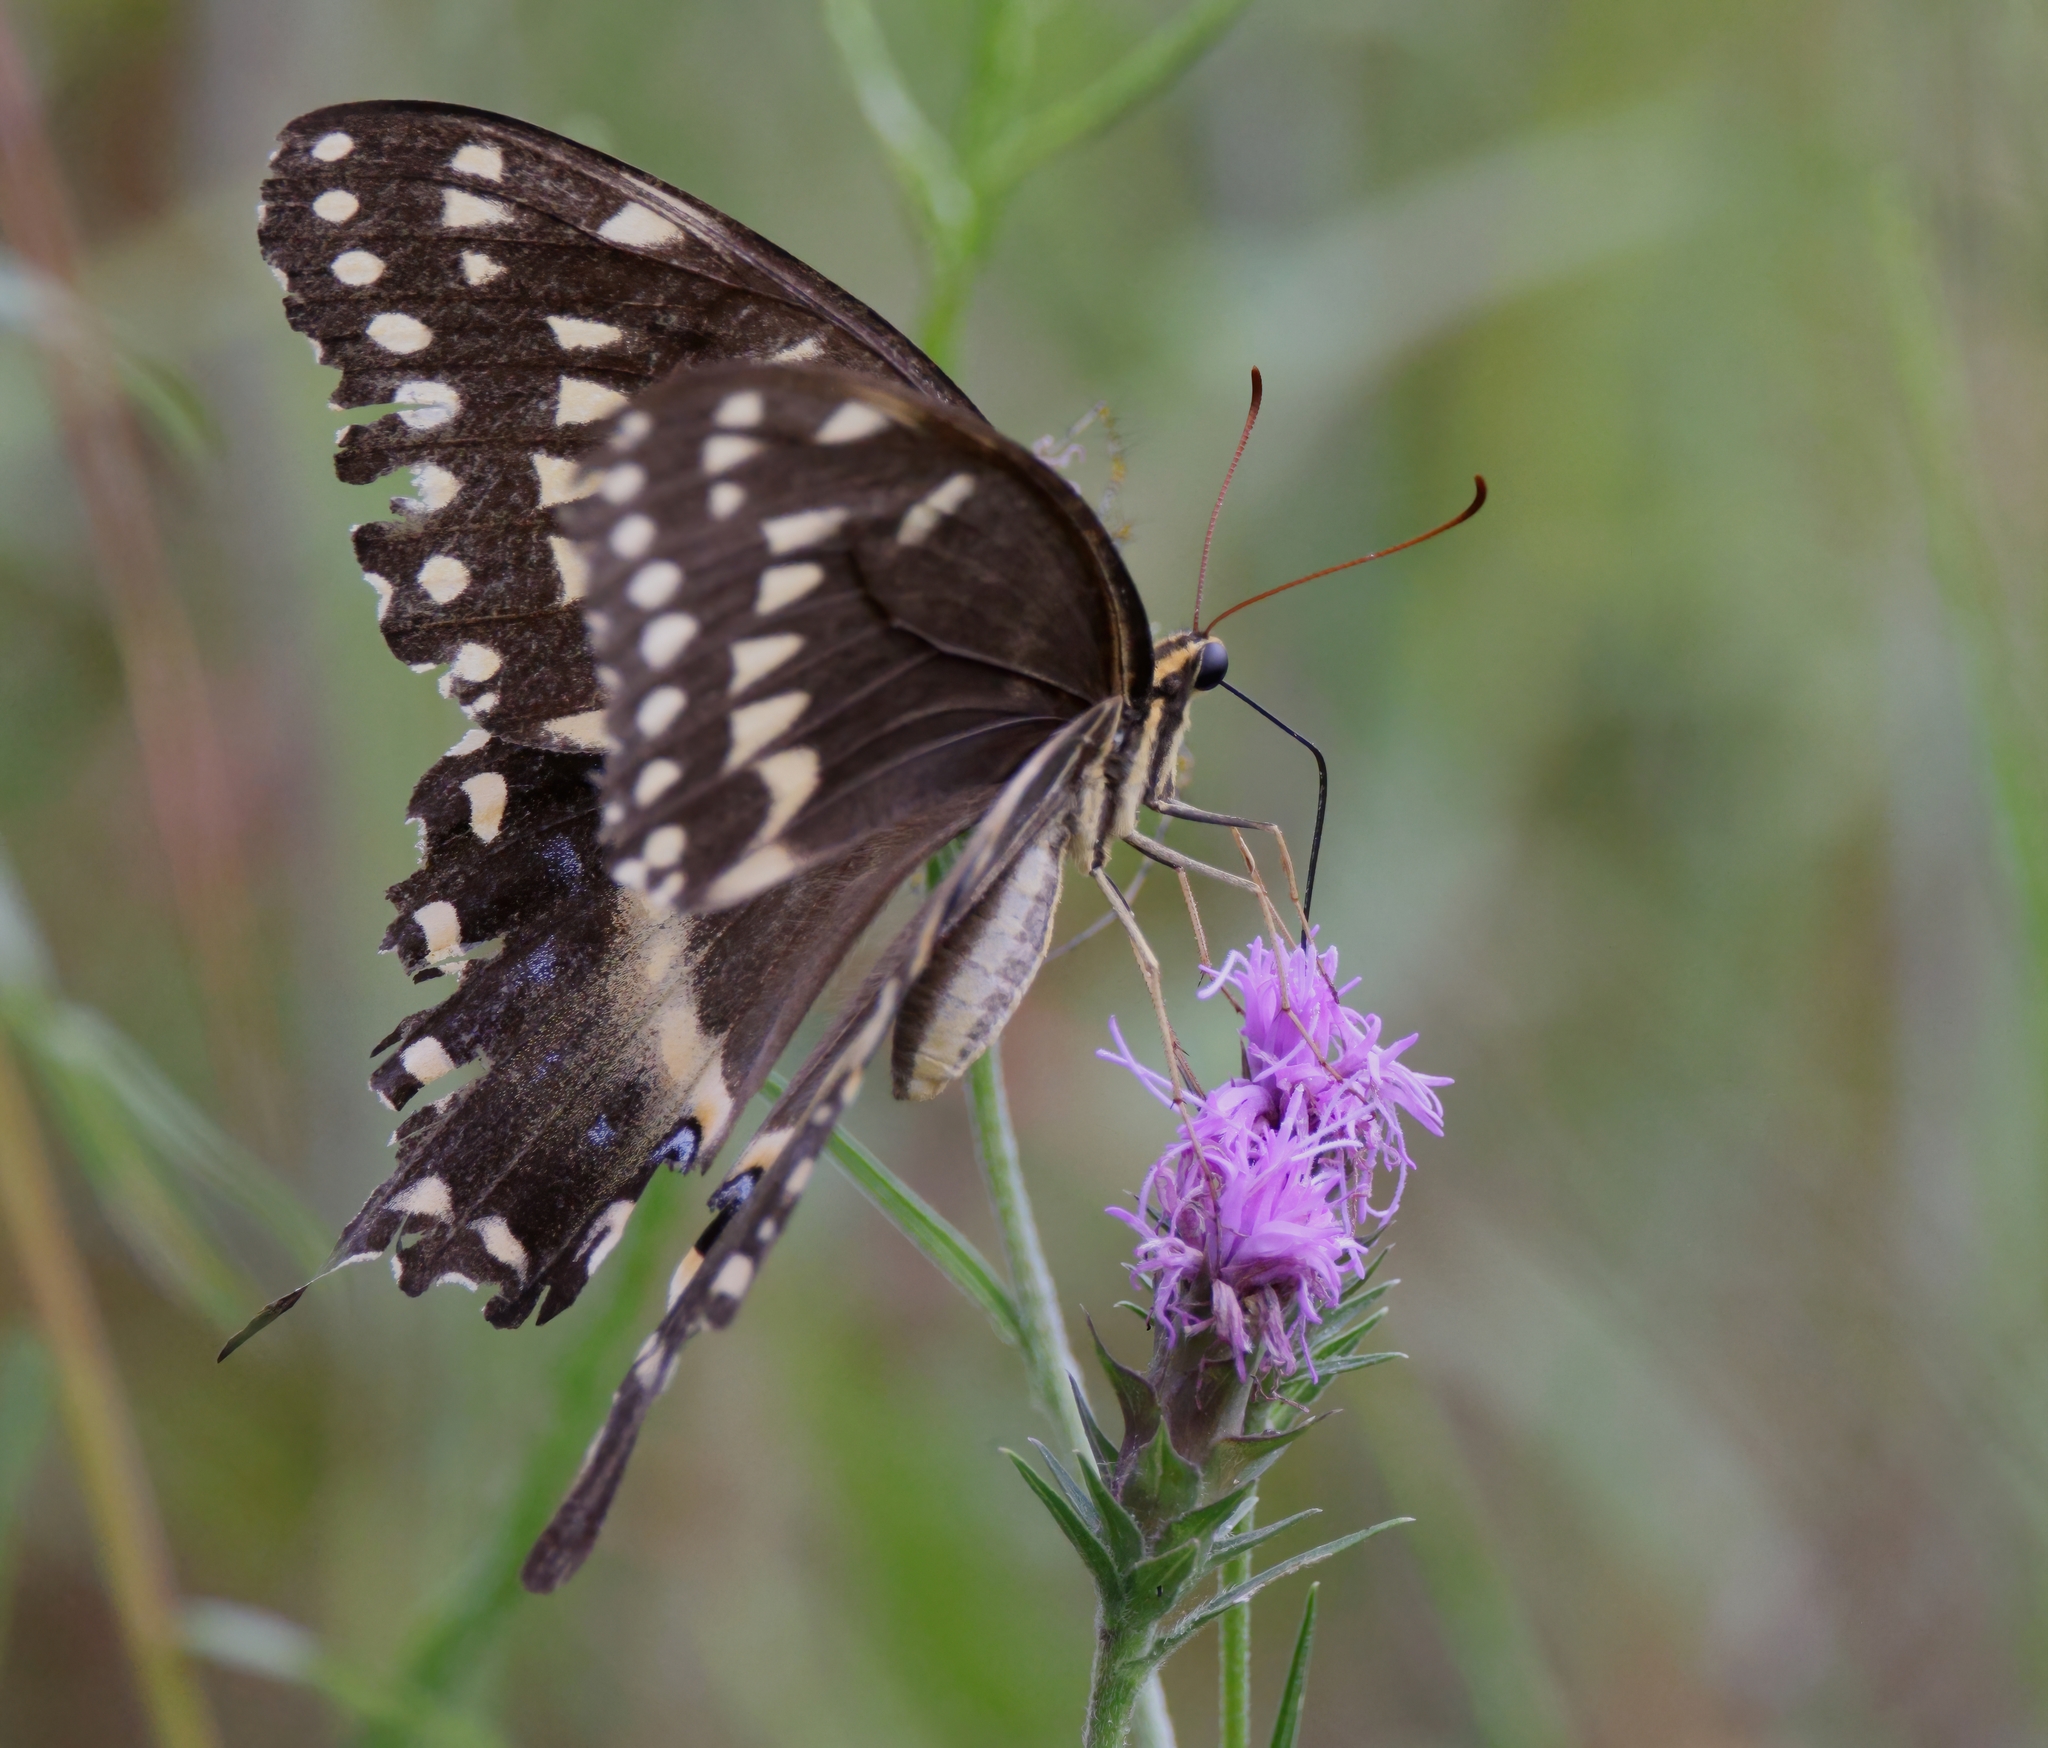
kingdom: Animalia
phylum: Arthropoda
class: Insecta
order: Lepidoptera
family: Papilionidae
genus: Papilio
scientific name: Papilio palamedes
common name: Palamedes swallowtail
